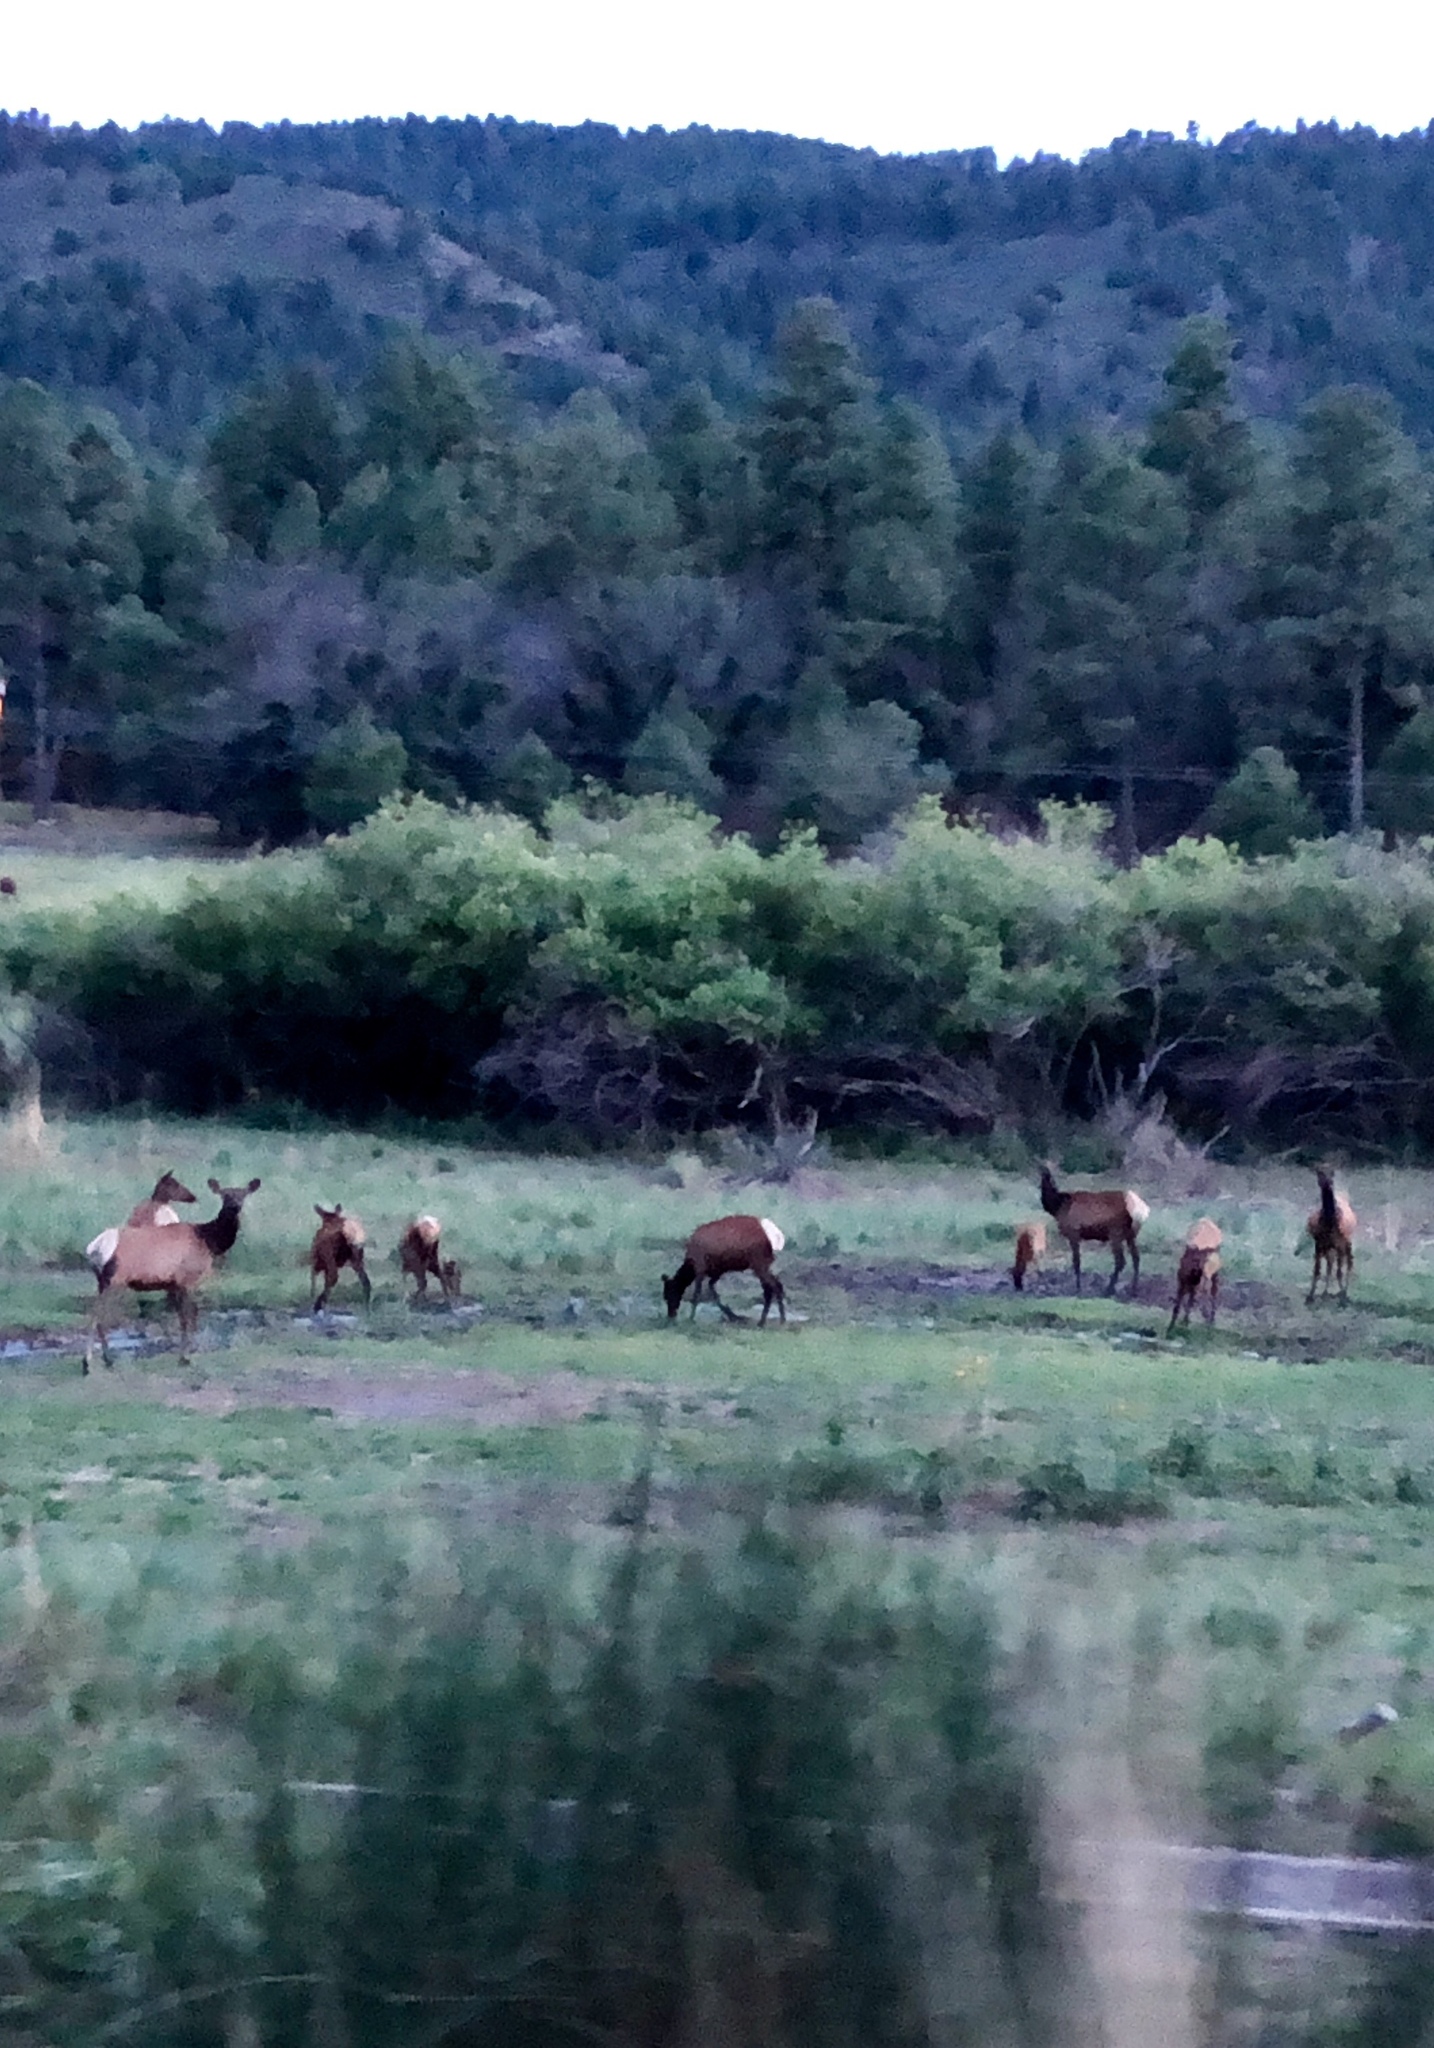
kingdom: Animalia
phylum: Chordata
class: Mammalia
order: Artiodactyla
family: Cervidae
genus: Cervus
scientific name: Cervus elaphus
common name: Red deer
